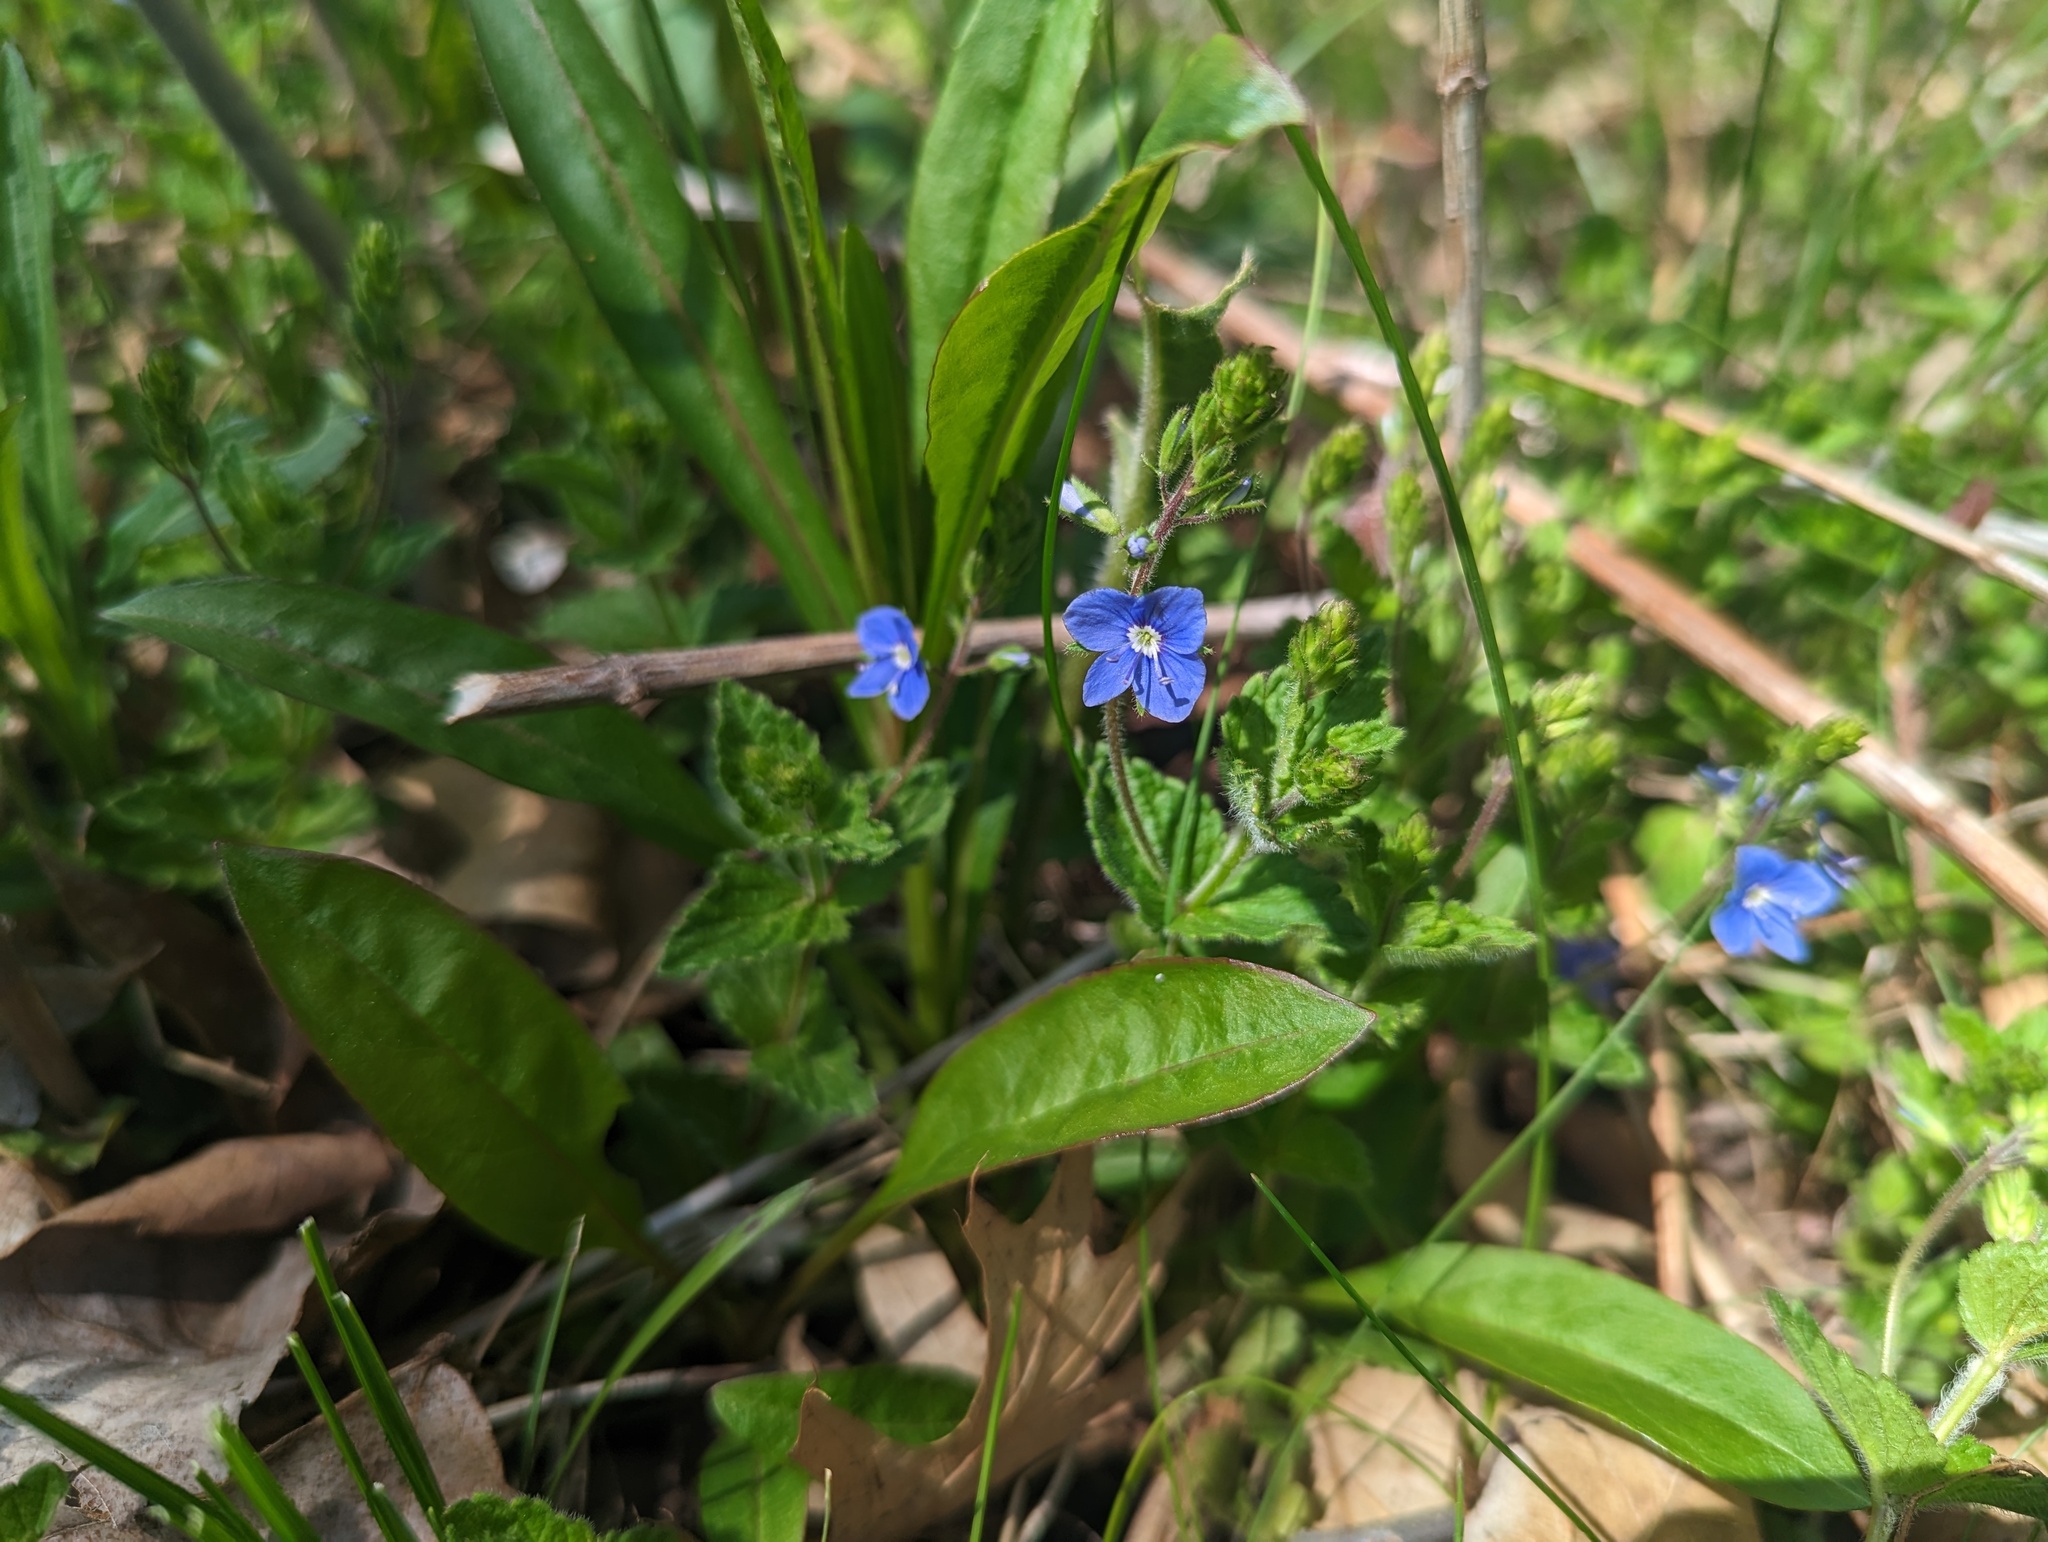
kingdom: Plantae
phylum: Tracheophyta
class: Magnoliopsida
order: Lamiales
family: Plantaginaceae
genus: Veronica
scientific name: Veronica chamaedrys
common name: Germander speedwell
